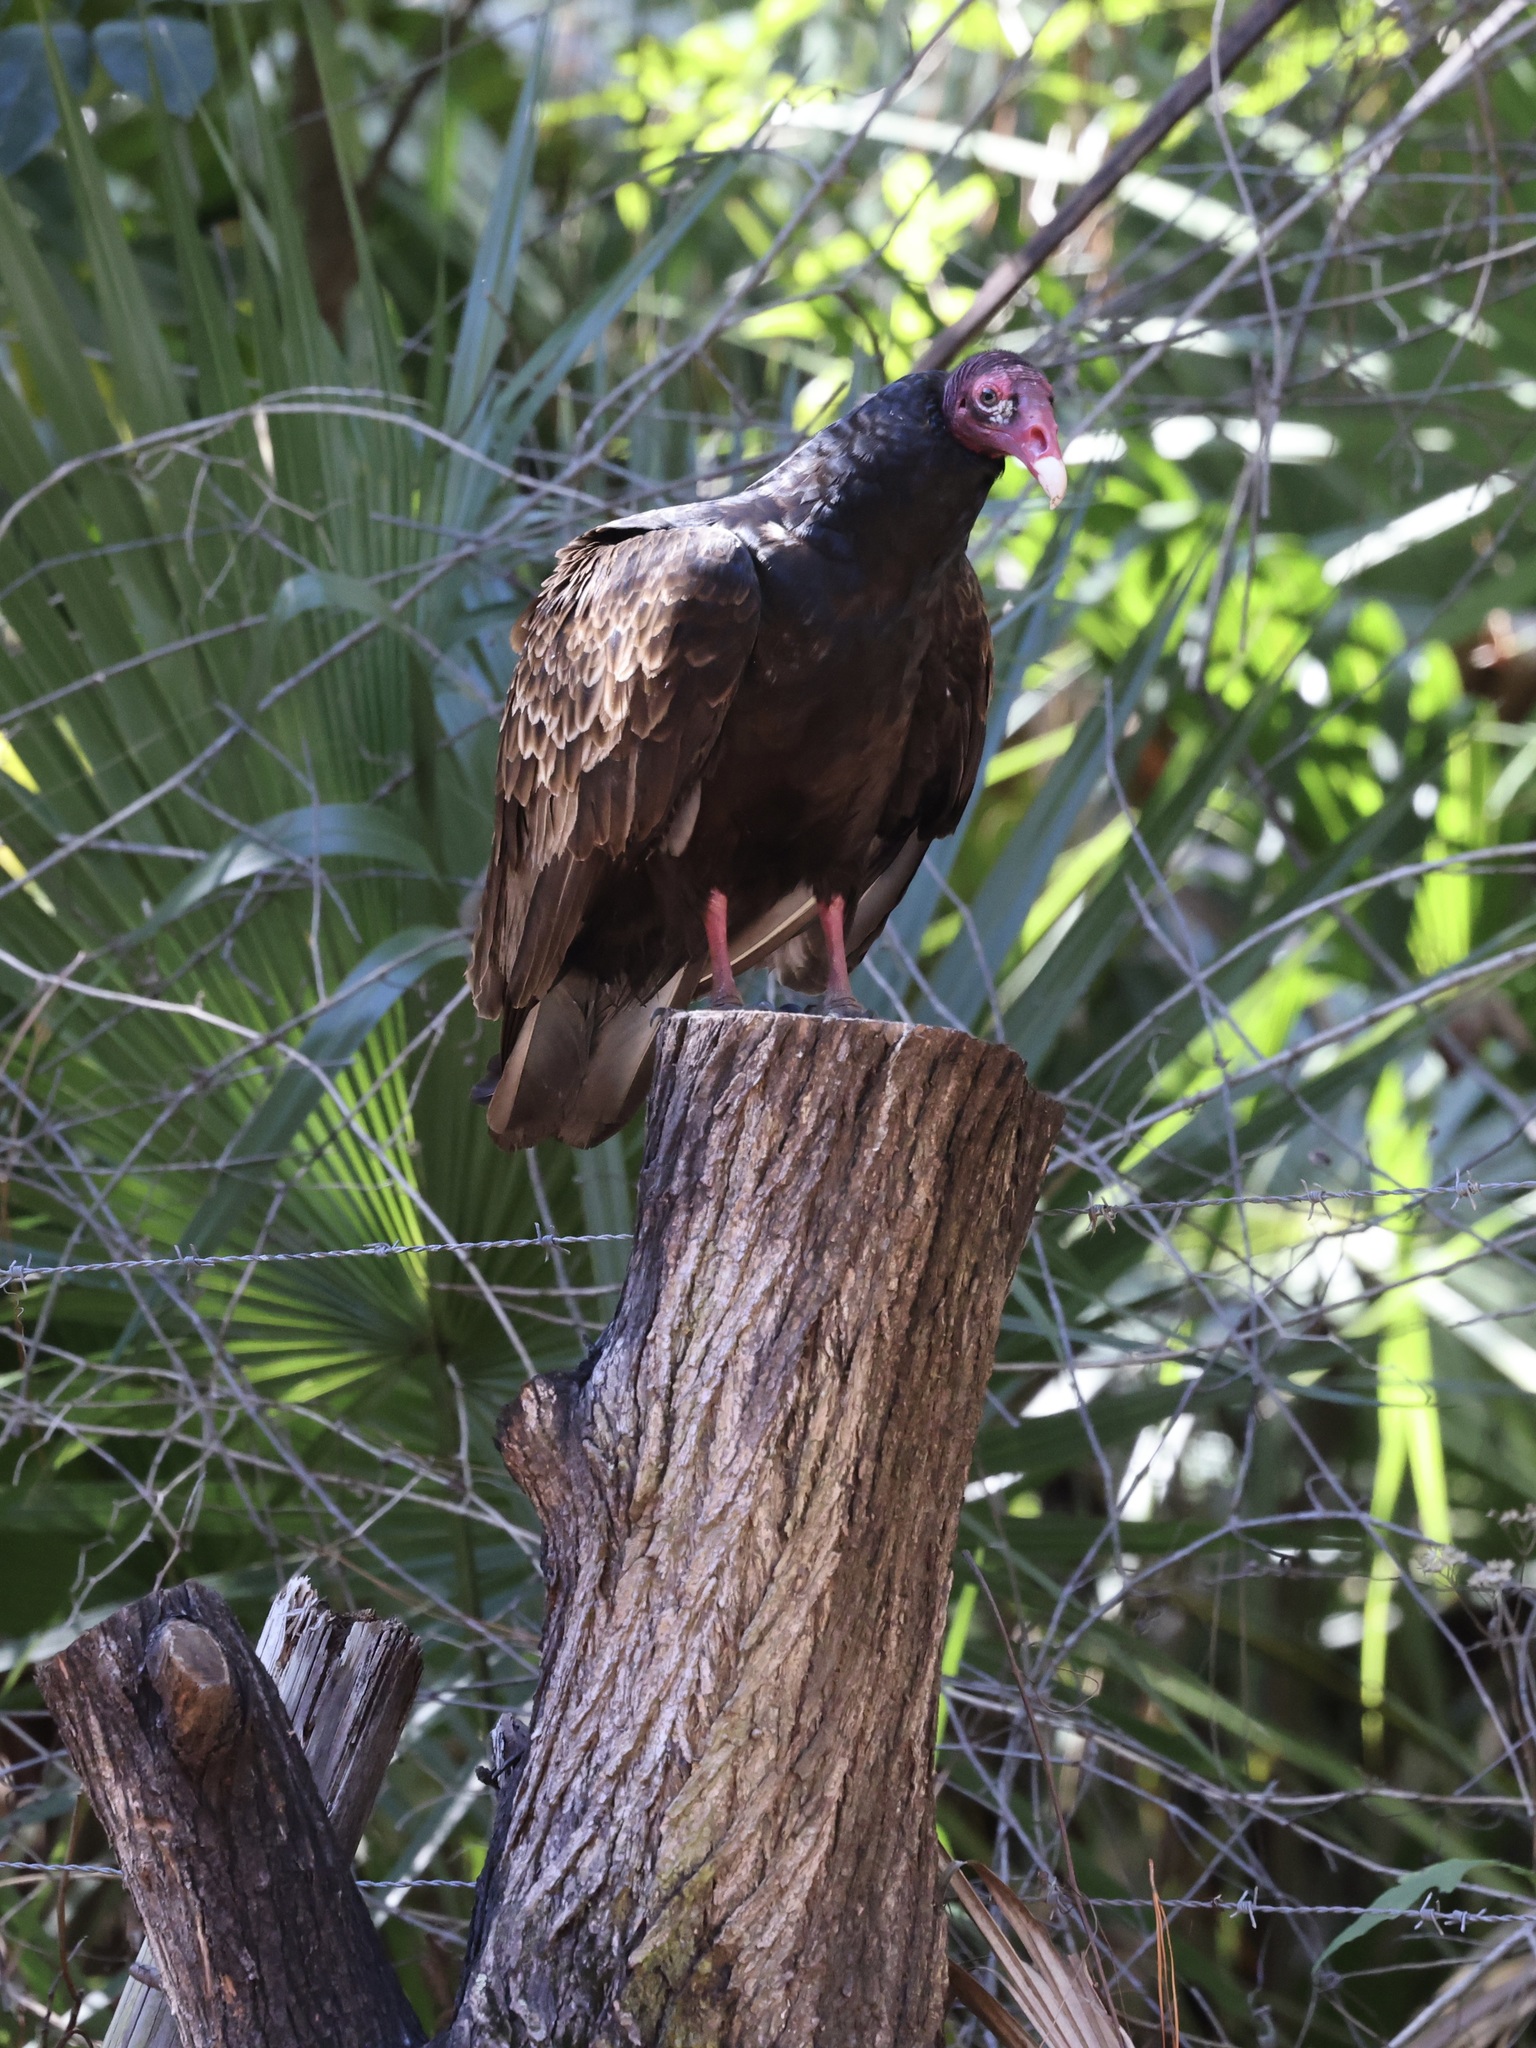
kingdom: Animalia
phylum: Chordata
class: Aves
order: Accipitriformes
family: Cathartidae
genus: Cathartes
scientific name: Cathartes aura
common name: Turkey vulture
